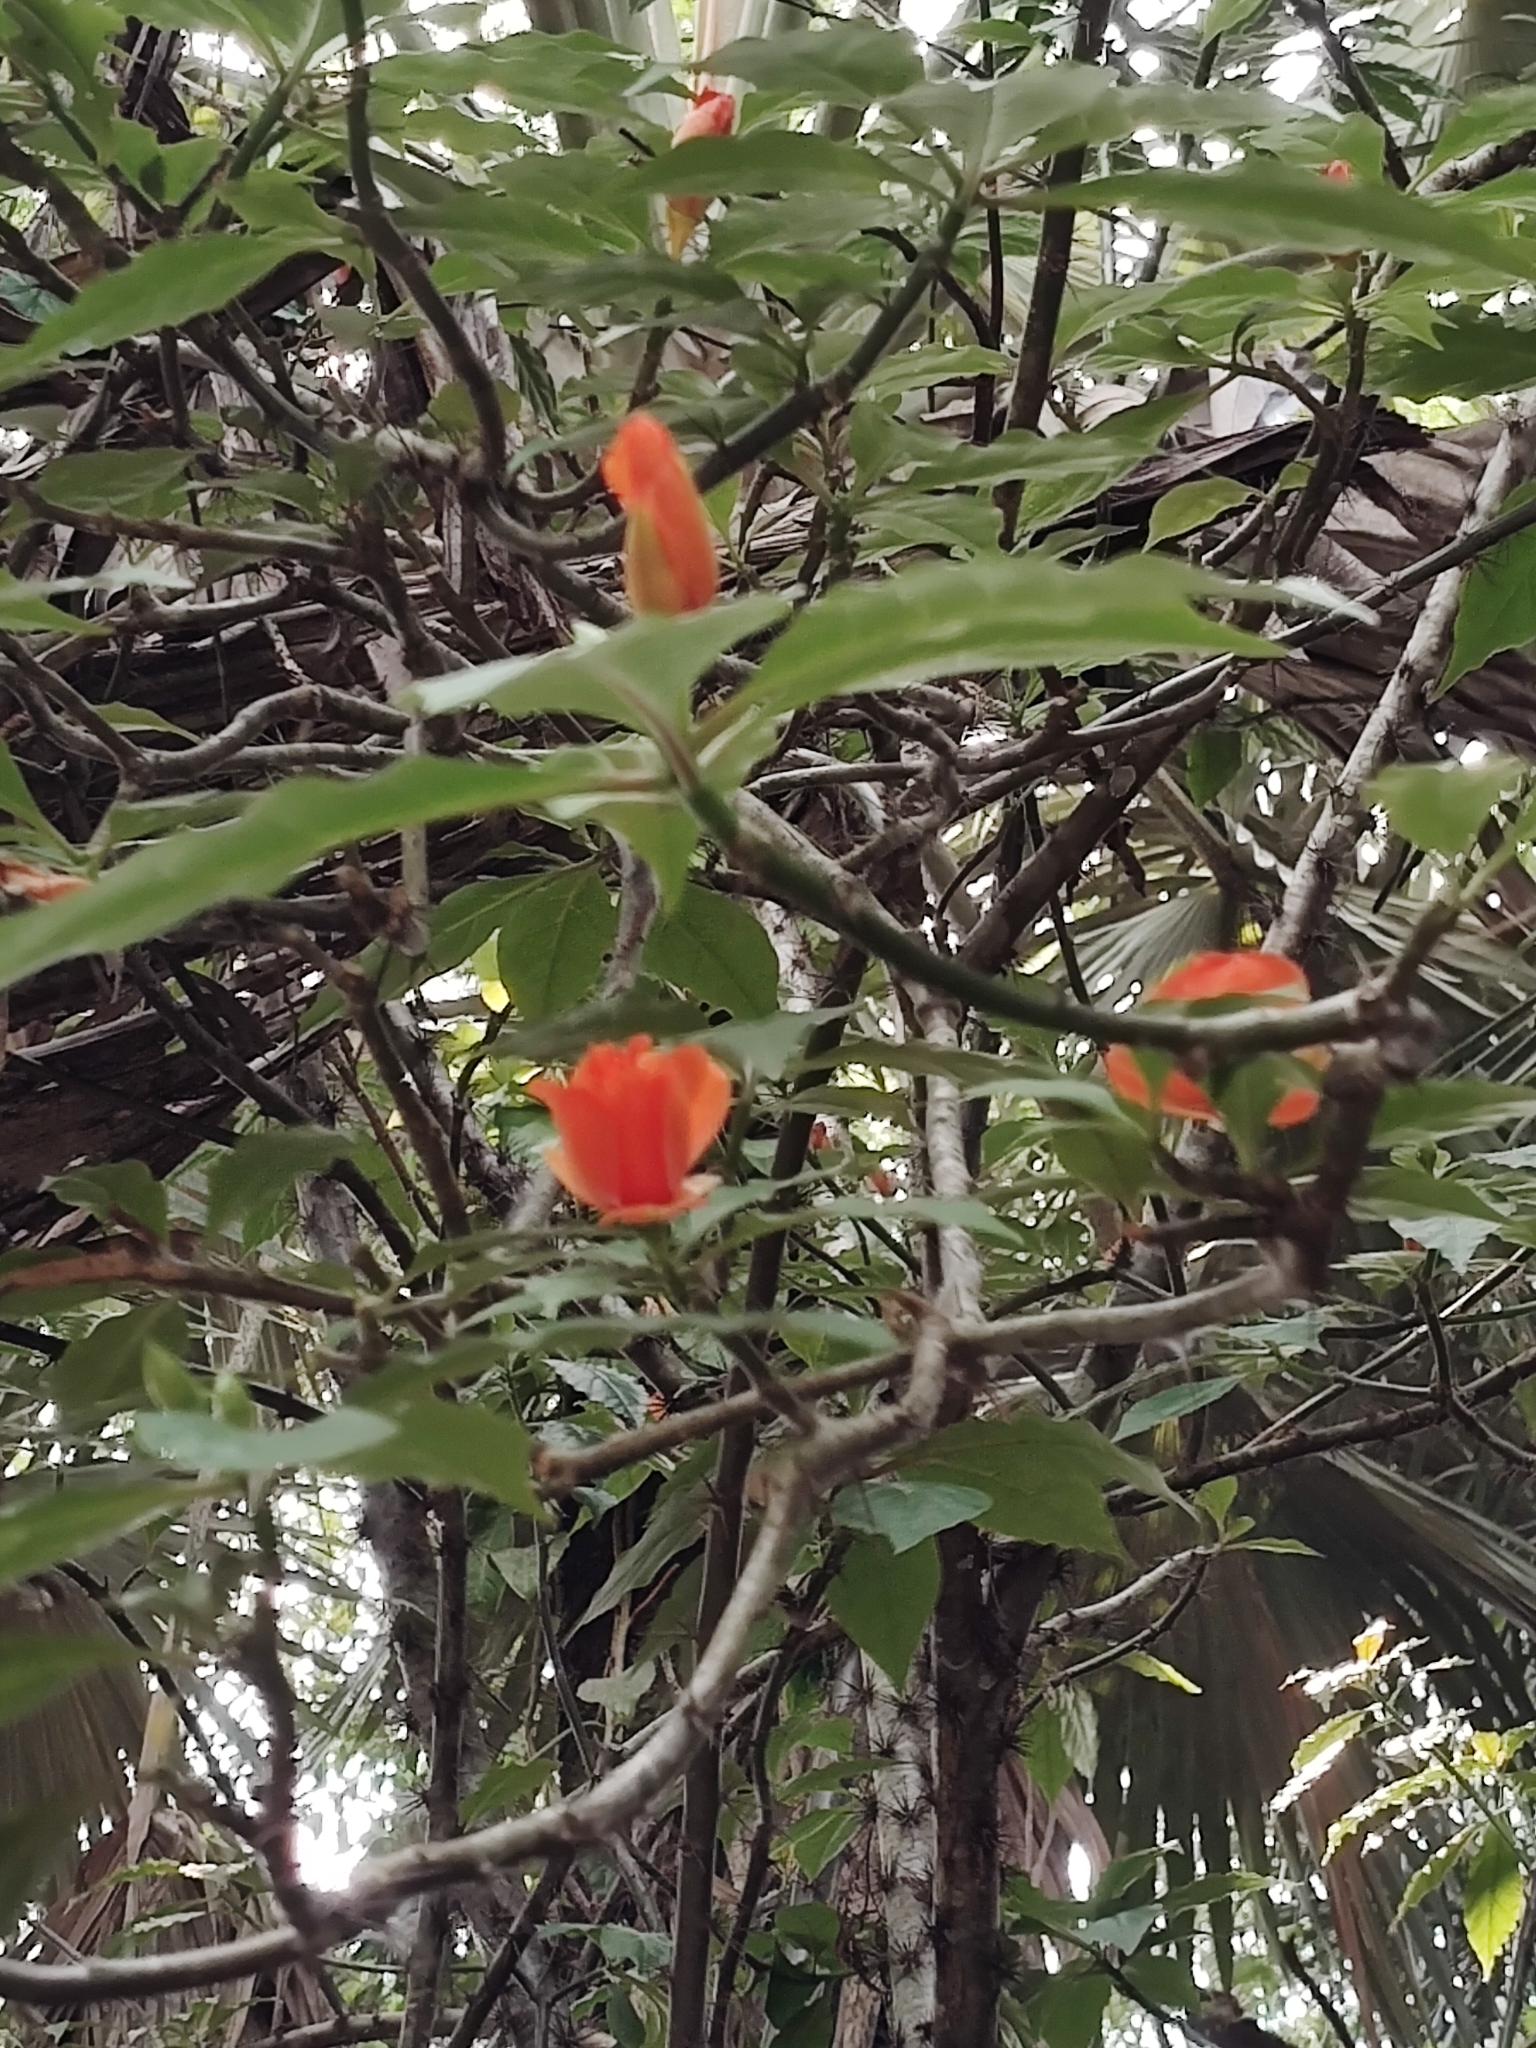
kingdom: Plantae
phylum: Tracheophyta
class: Magnoliopsida
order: Caryophyllales
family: Cactaceae
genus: Leuenbergeria
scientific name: Leuenbergeria bleo
